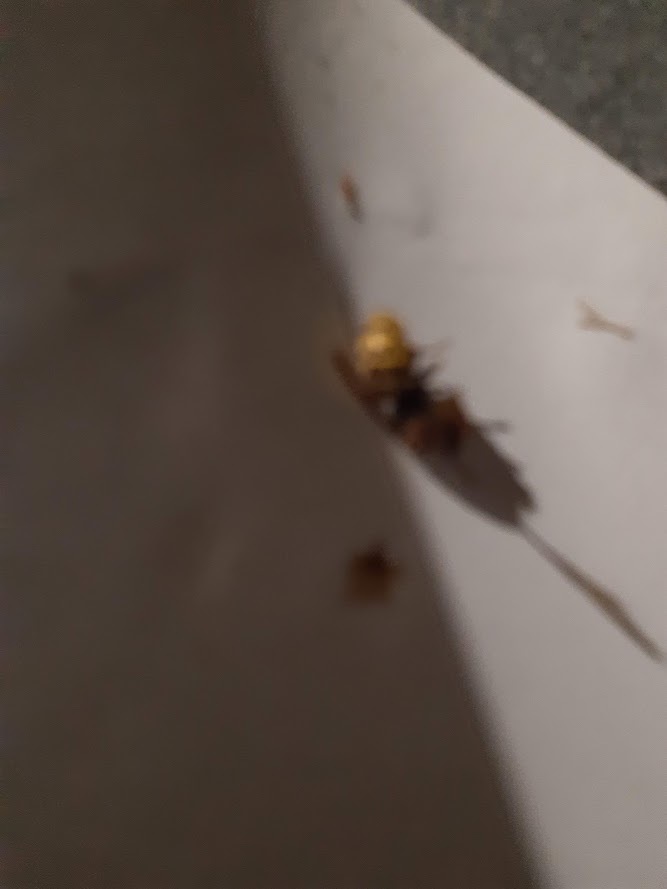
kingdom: Animalia
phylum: Arthropoda
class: Insecta
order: Hymenoptera
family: Vespidae
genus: Vespa
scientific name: Vespa crabro
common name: Hornet
